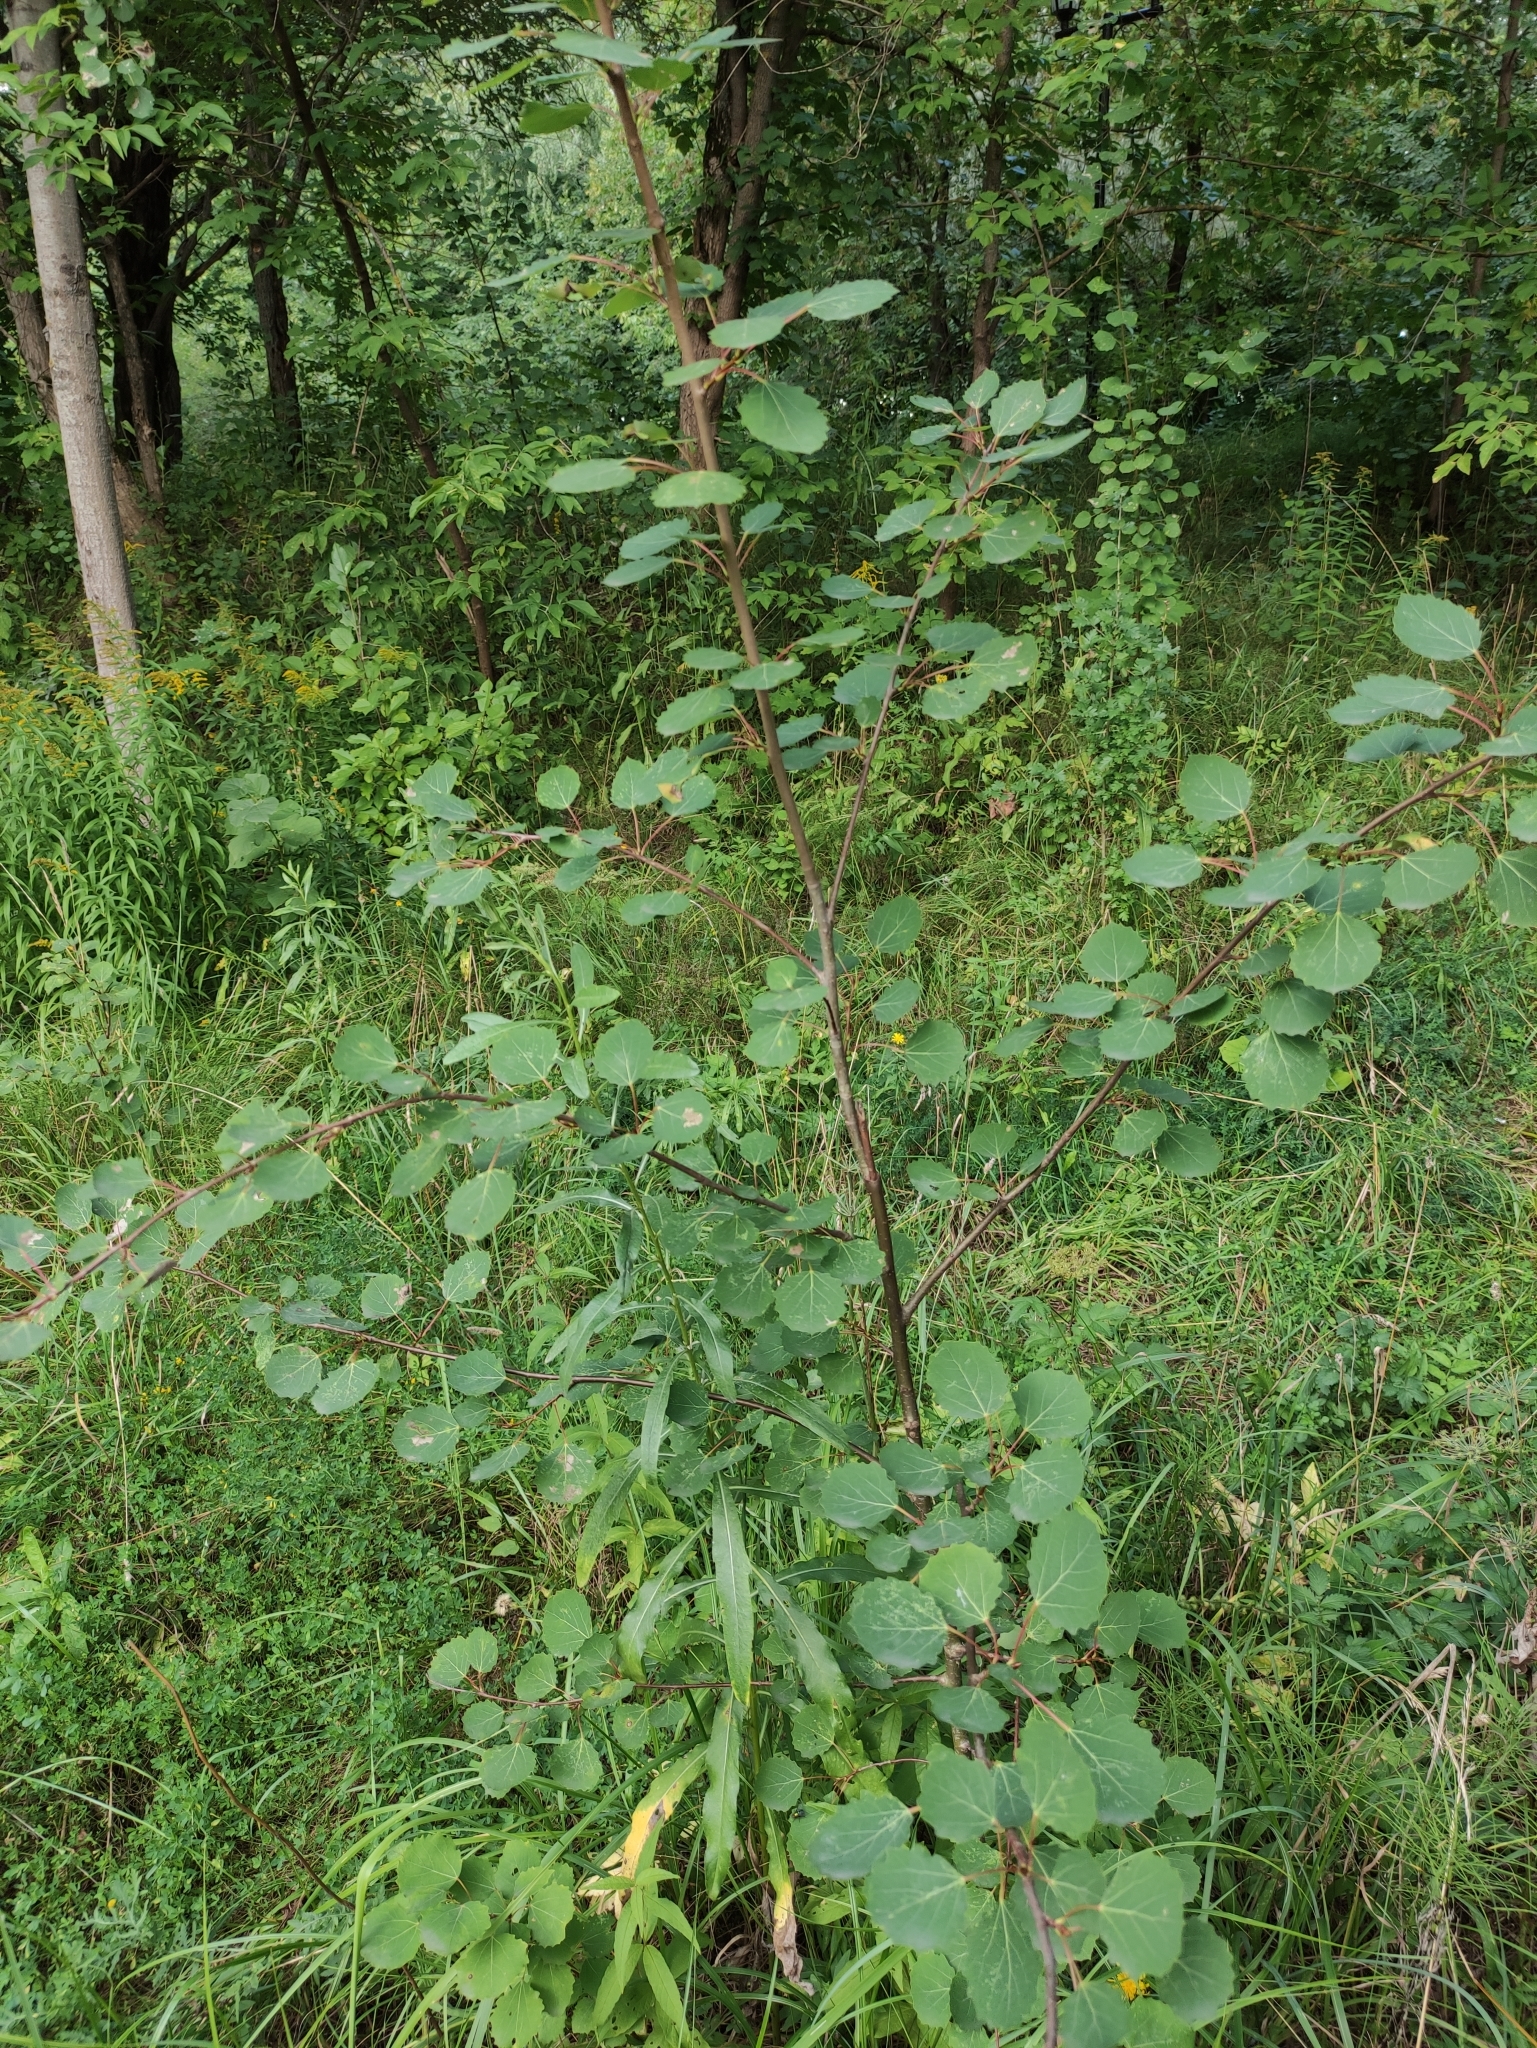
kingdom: Plantae
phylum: Tracheophyta
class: Magnoliopsida
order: Malpighiales
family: Salicaceae
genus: Populus
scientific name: Populus tremula
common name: European aspen
